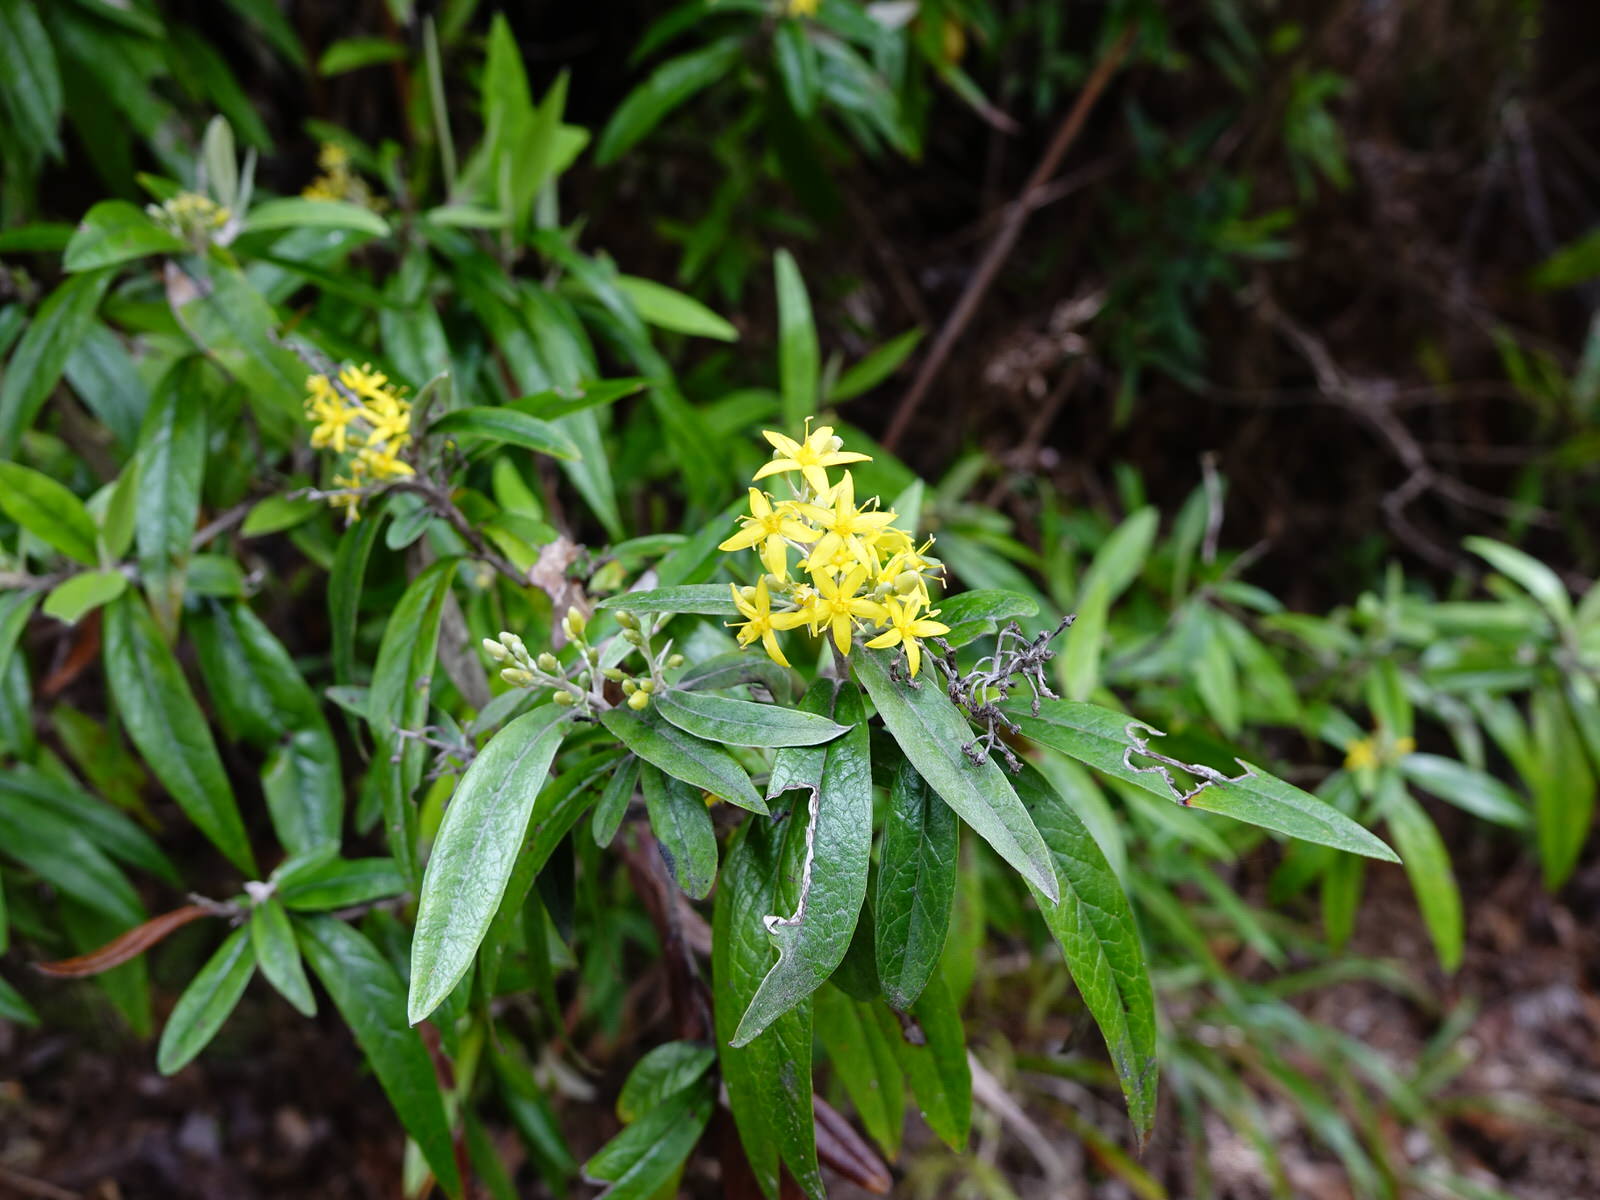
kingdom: Plantae
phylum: Tracheophyta
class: Magnoliopsida
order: Asterales
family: Argophyllaceae
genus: Corokia
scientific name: Corokia buddleioides
